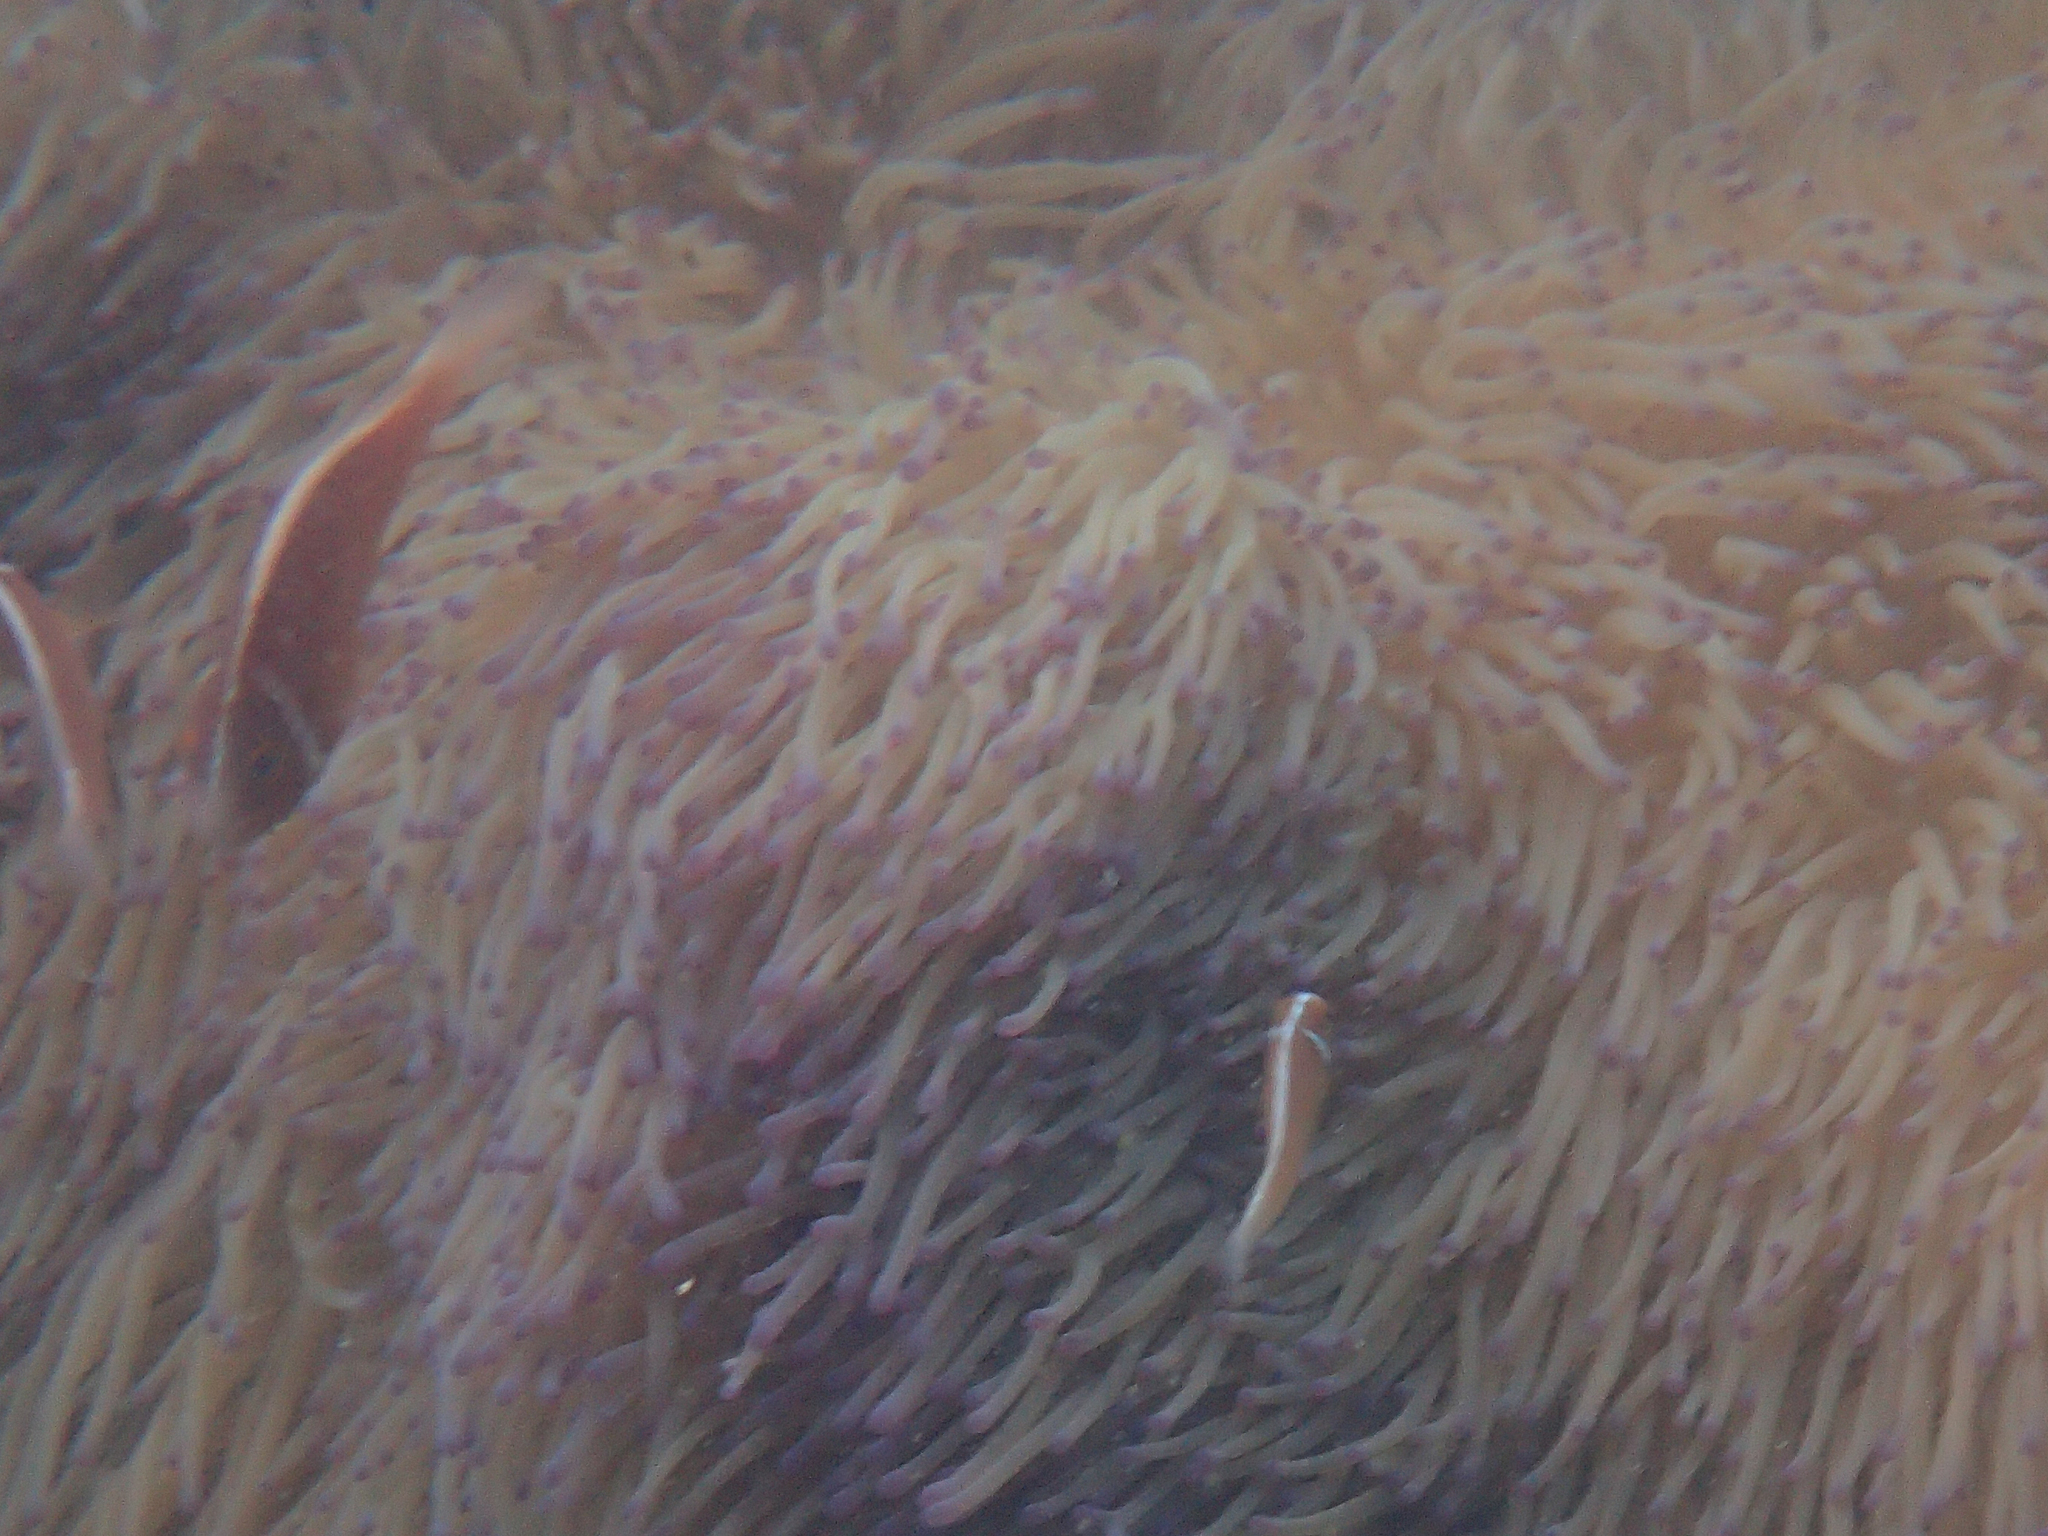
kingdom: Animalia
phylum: Chordata
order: Perciformes
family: Pomacentridae
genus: Amphiprion
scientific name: Amphiprion perideraion
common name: Pink anemonefish
